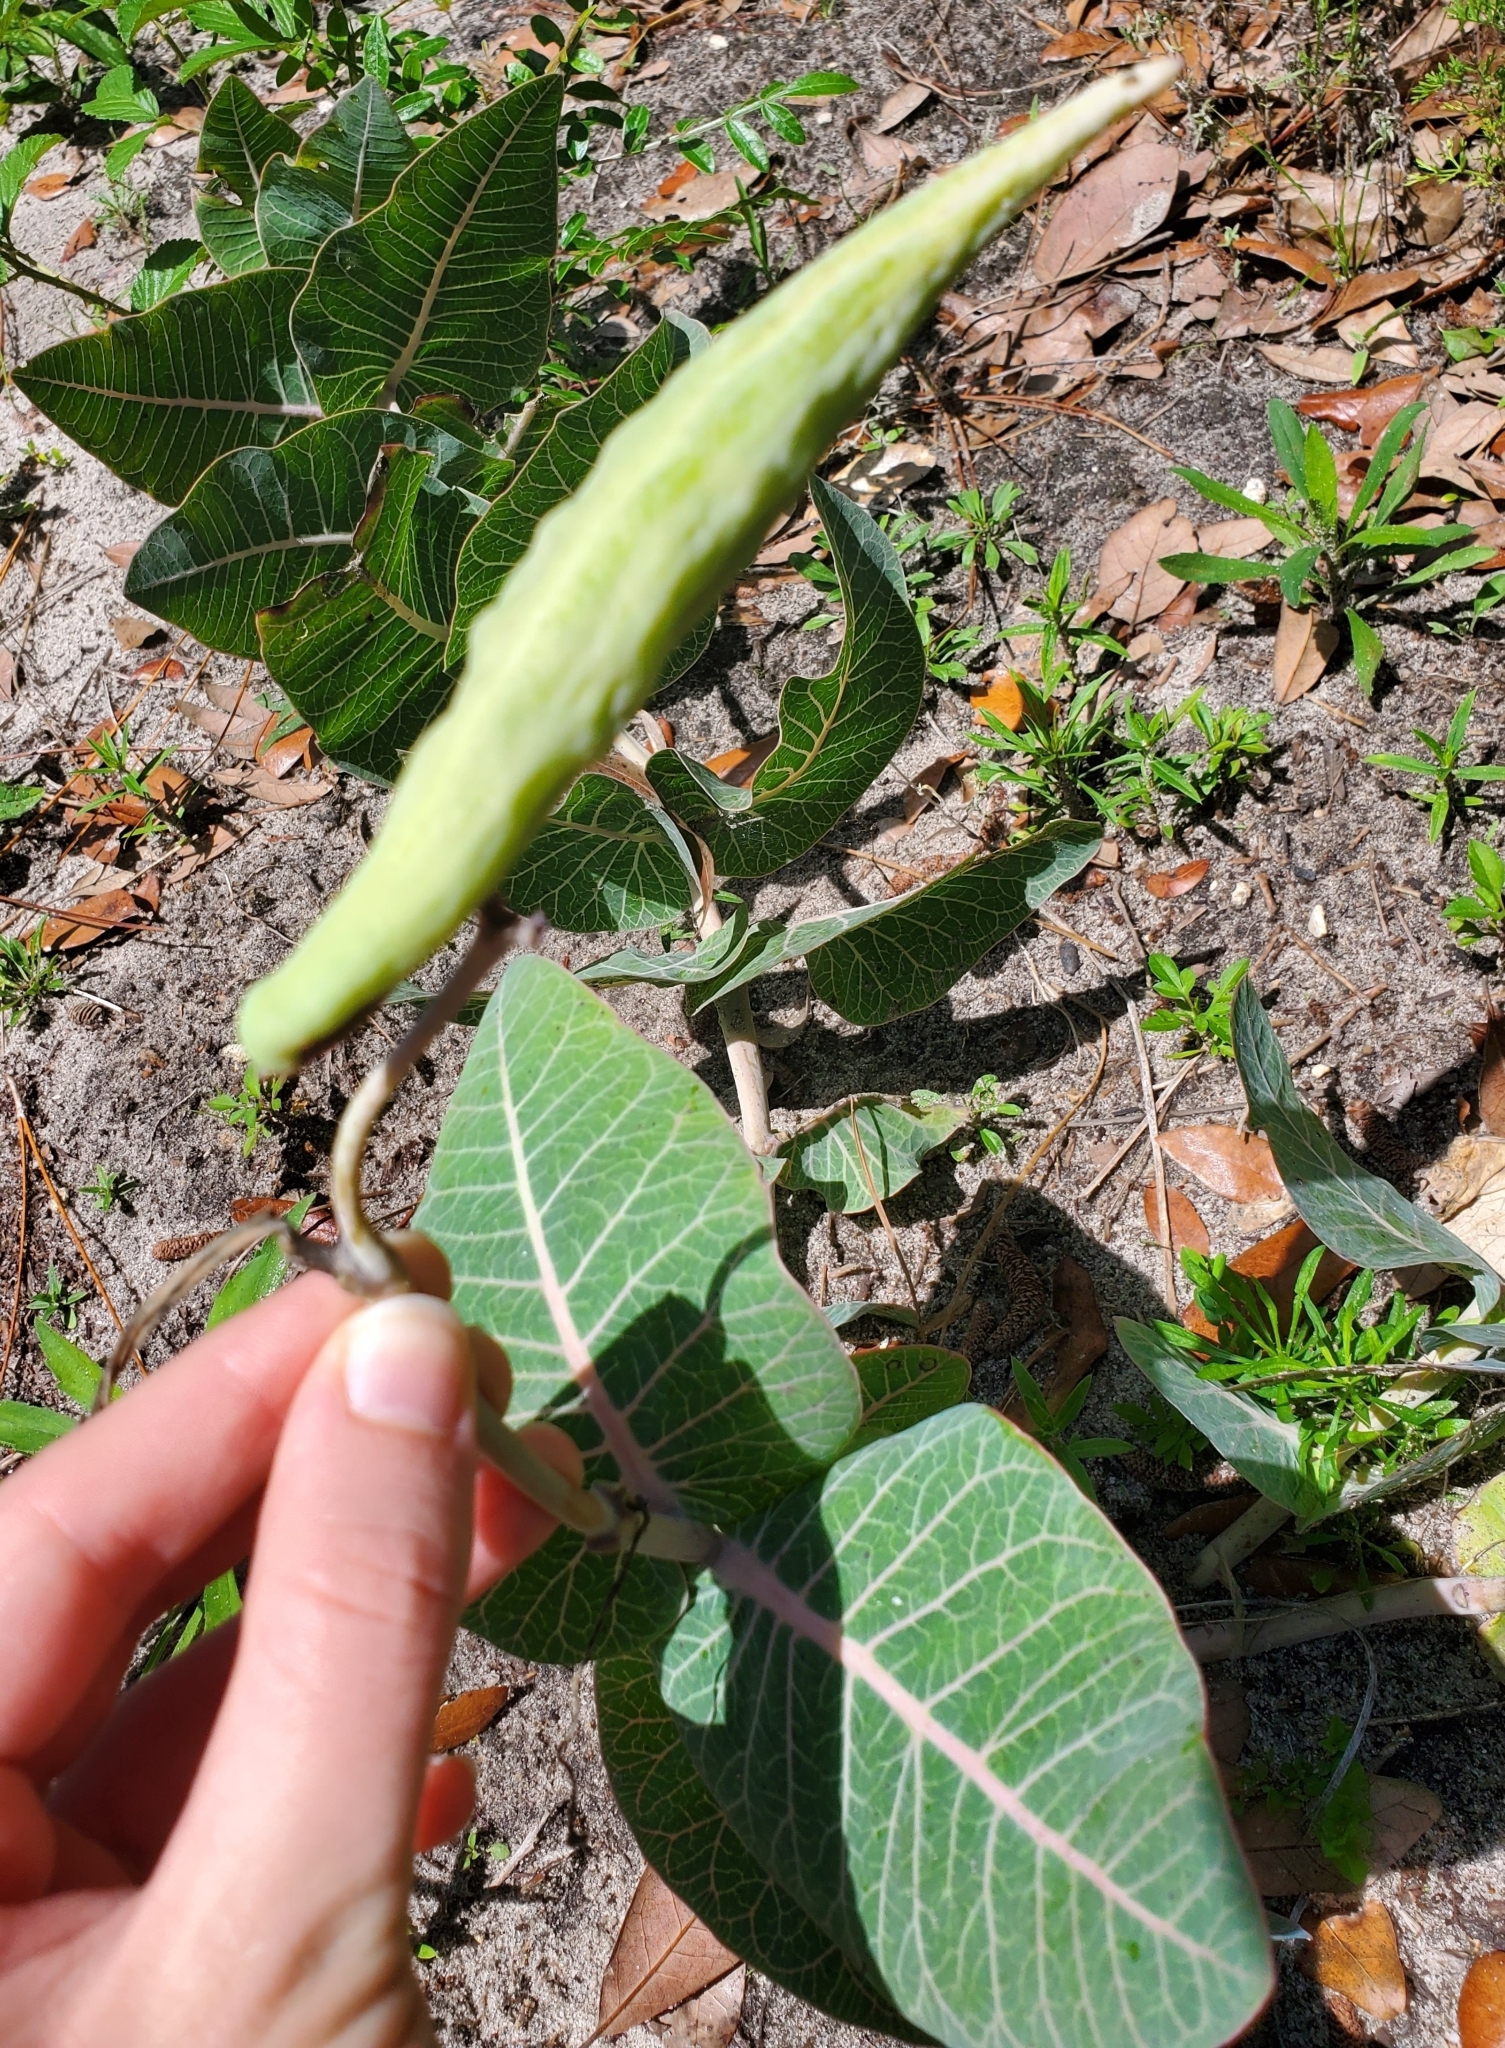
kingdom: Plantae
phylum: Tracheophyta
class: Magnoliopsida
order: Gentianales
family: Apocynaceae
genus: Asclepias
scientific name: Asclepias humistrata
